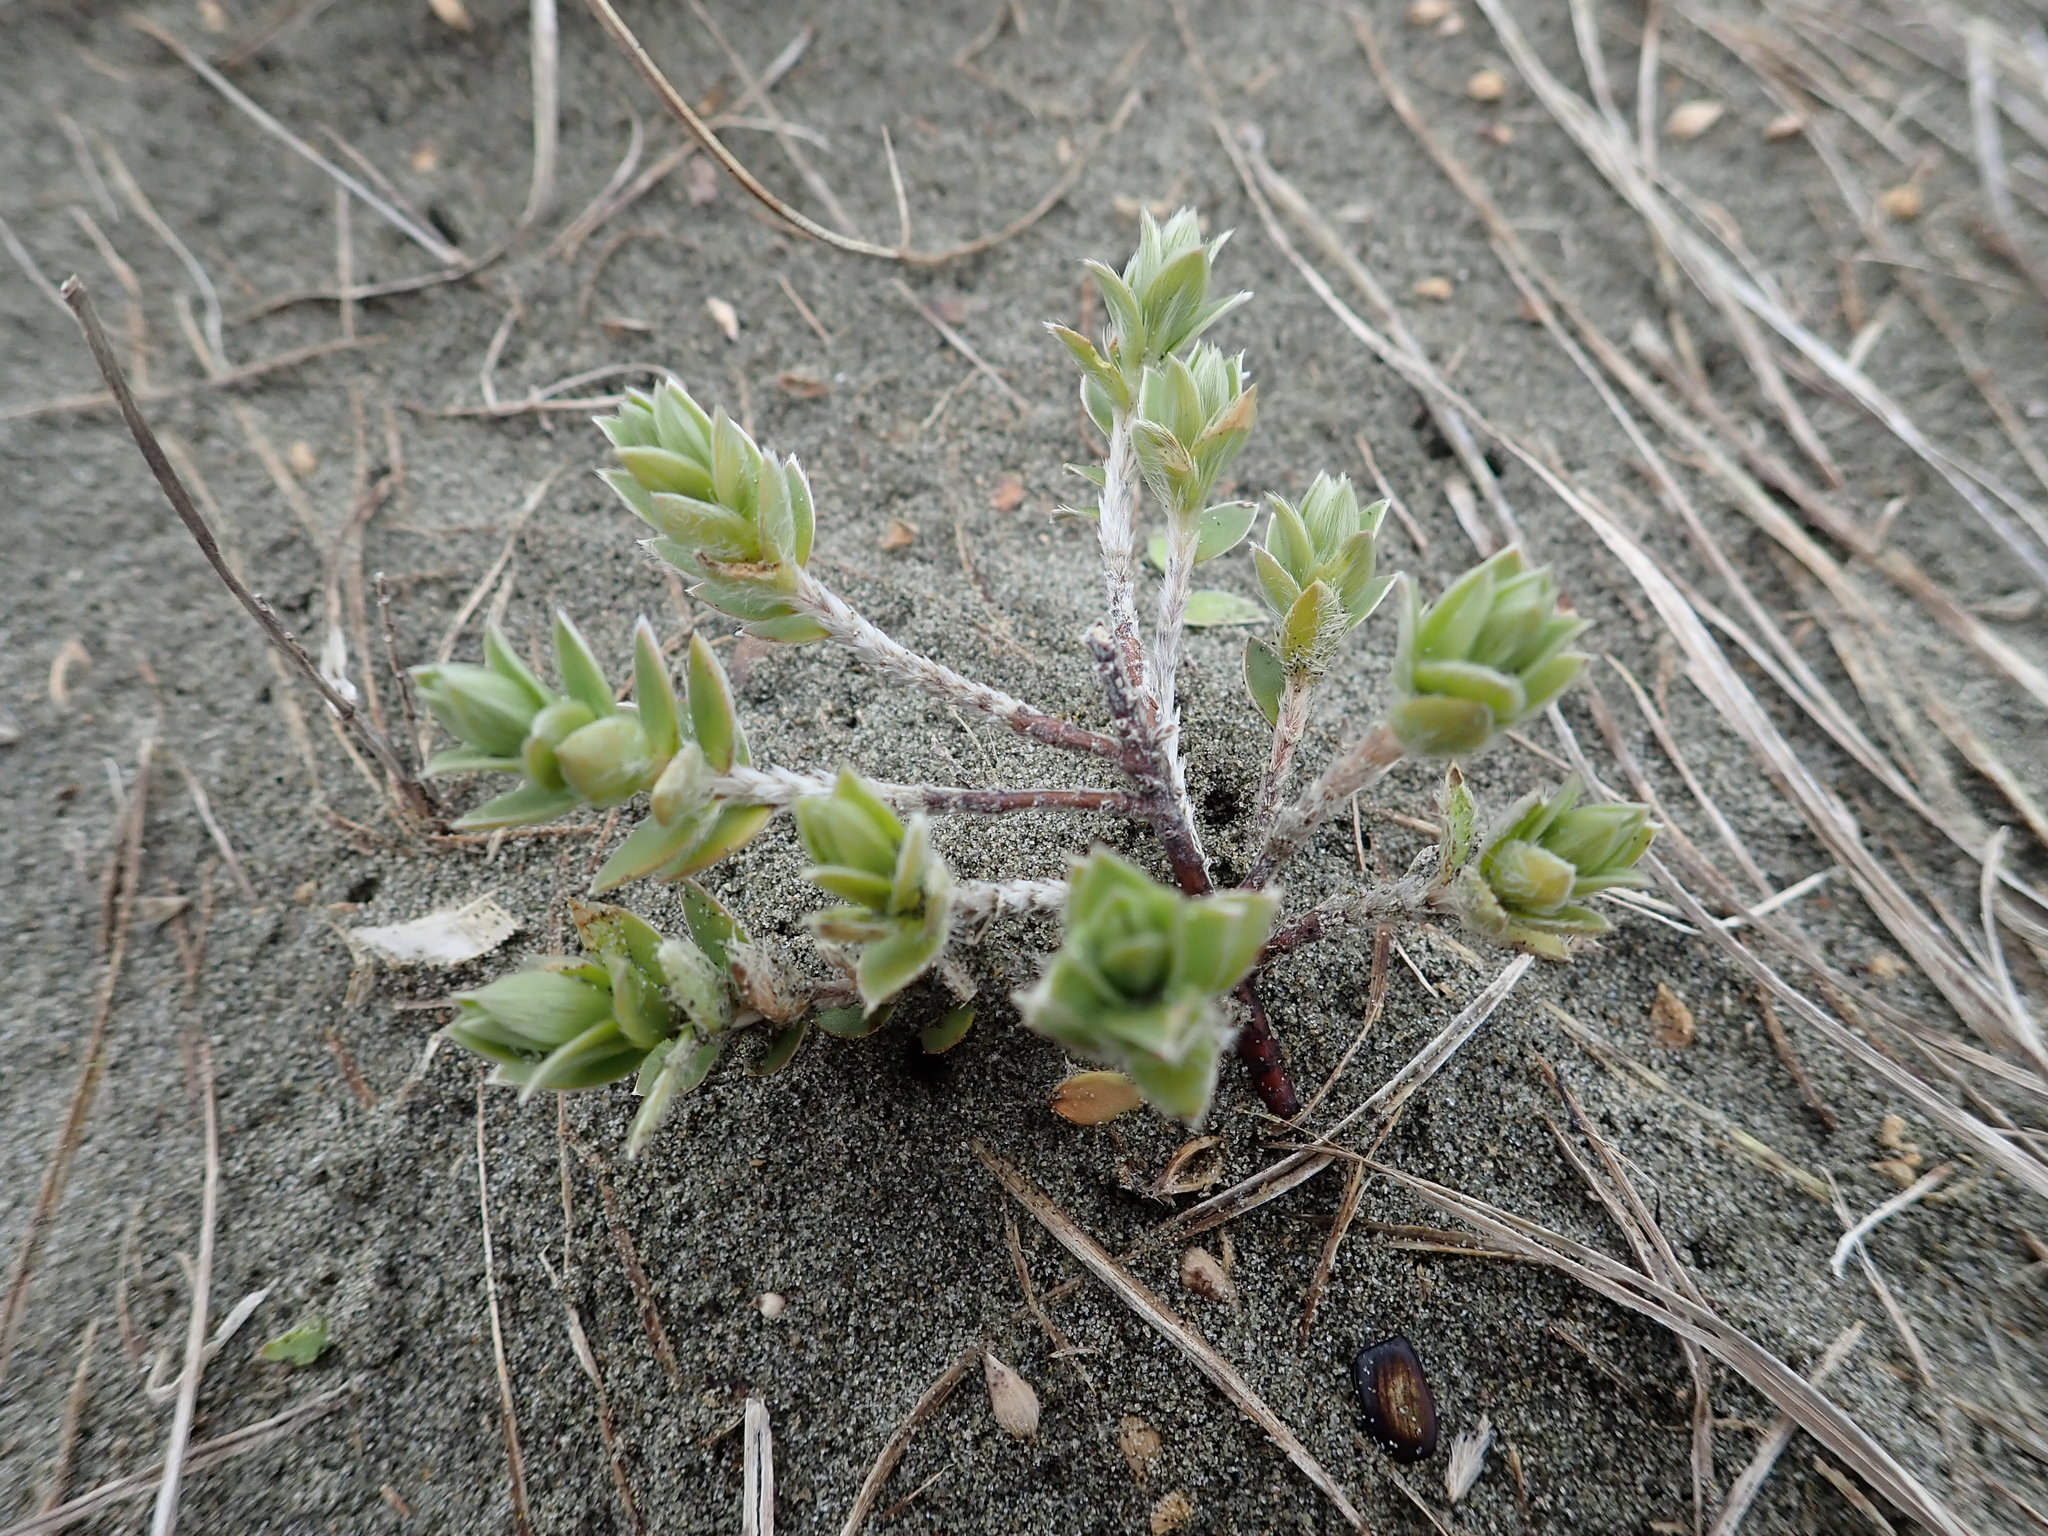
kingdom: Plantae
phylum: Tracheophyta
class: Magnoliopsida
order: Malvales
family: Thymelaeaceae
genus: Pimelea
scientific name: Pimelea villosa
